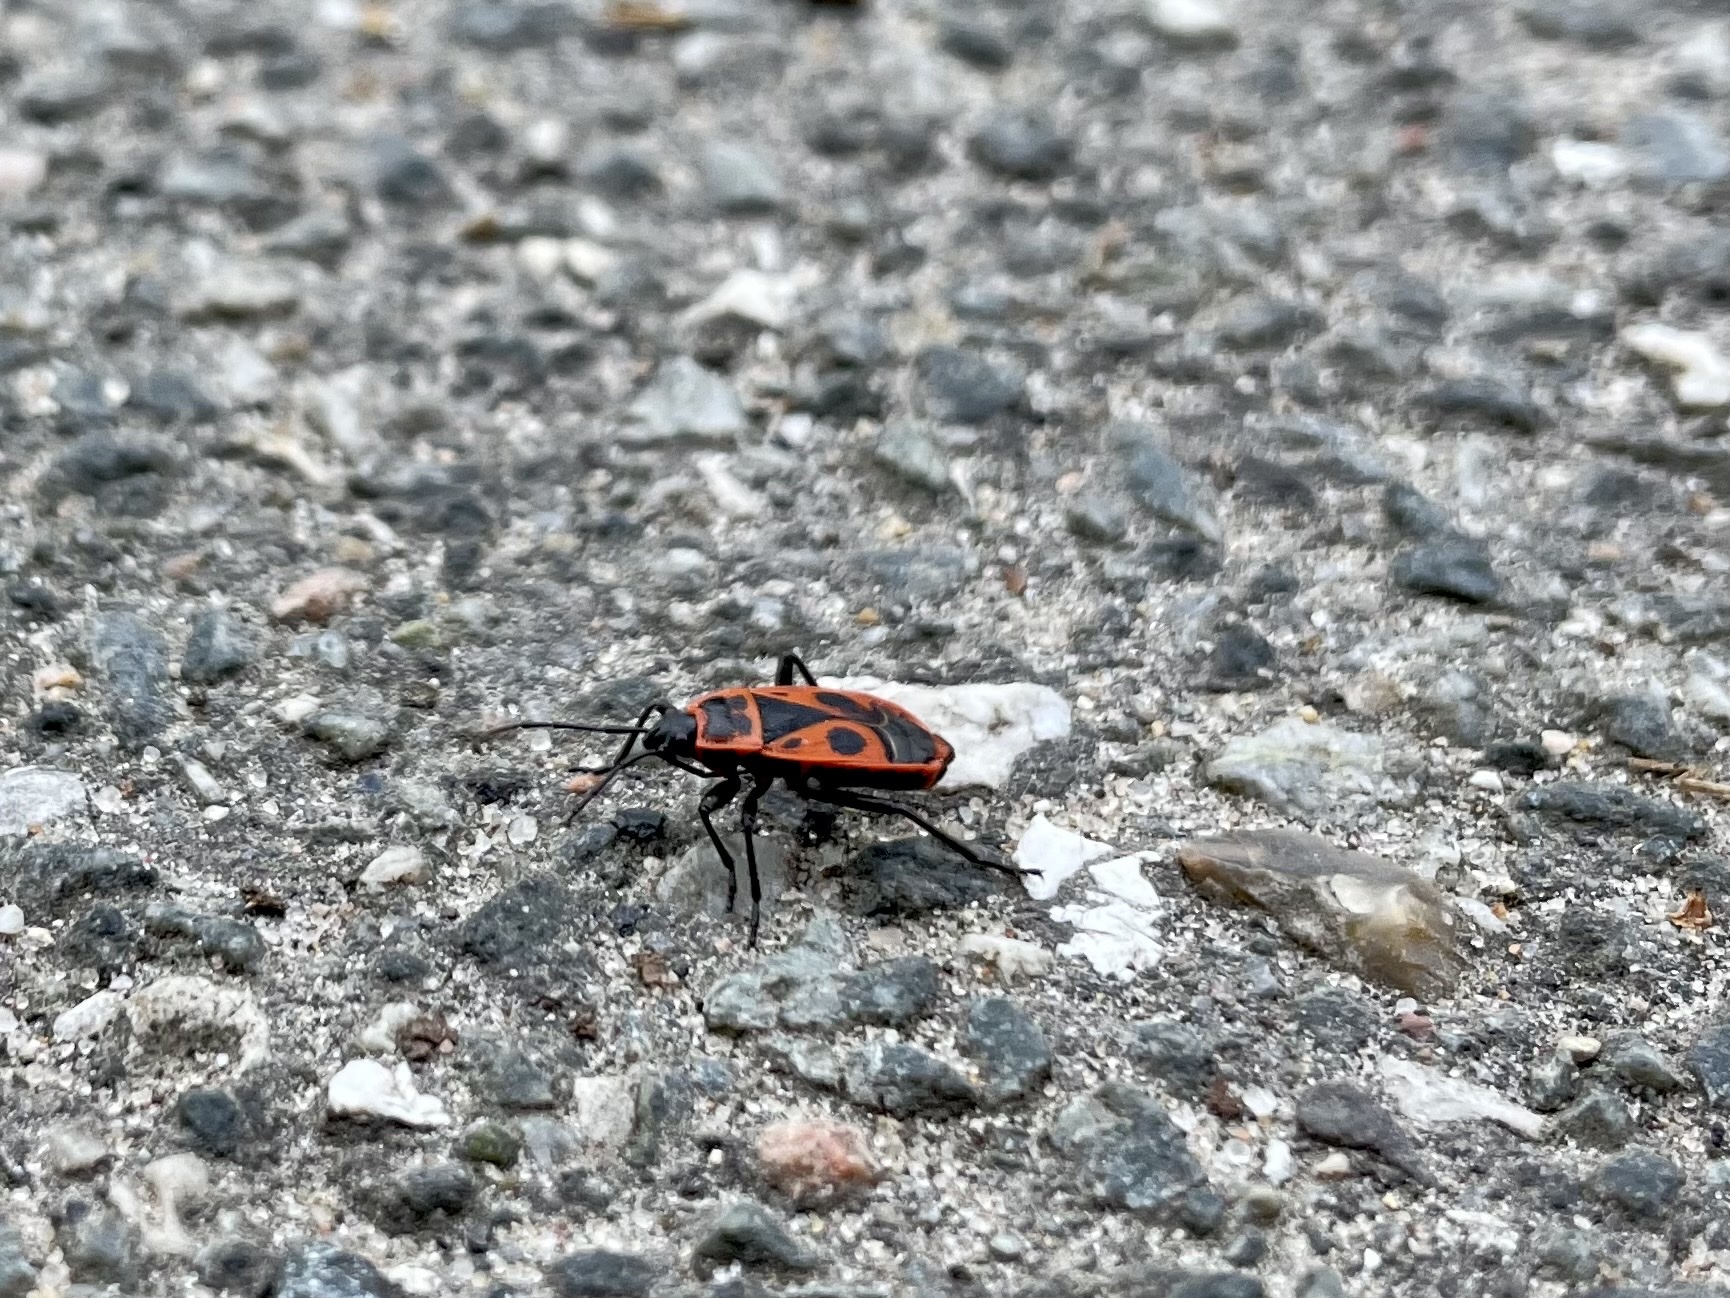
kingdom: Animalia
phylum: Arthropoda
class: Insecta
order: Hemiptera
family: Pyrrhocoridae
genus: Pyrrhocoris
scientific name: Pyrrhocoris apterus
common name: Firebug
